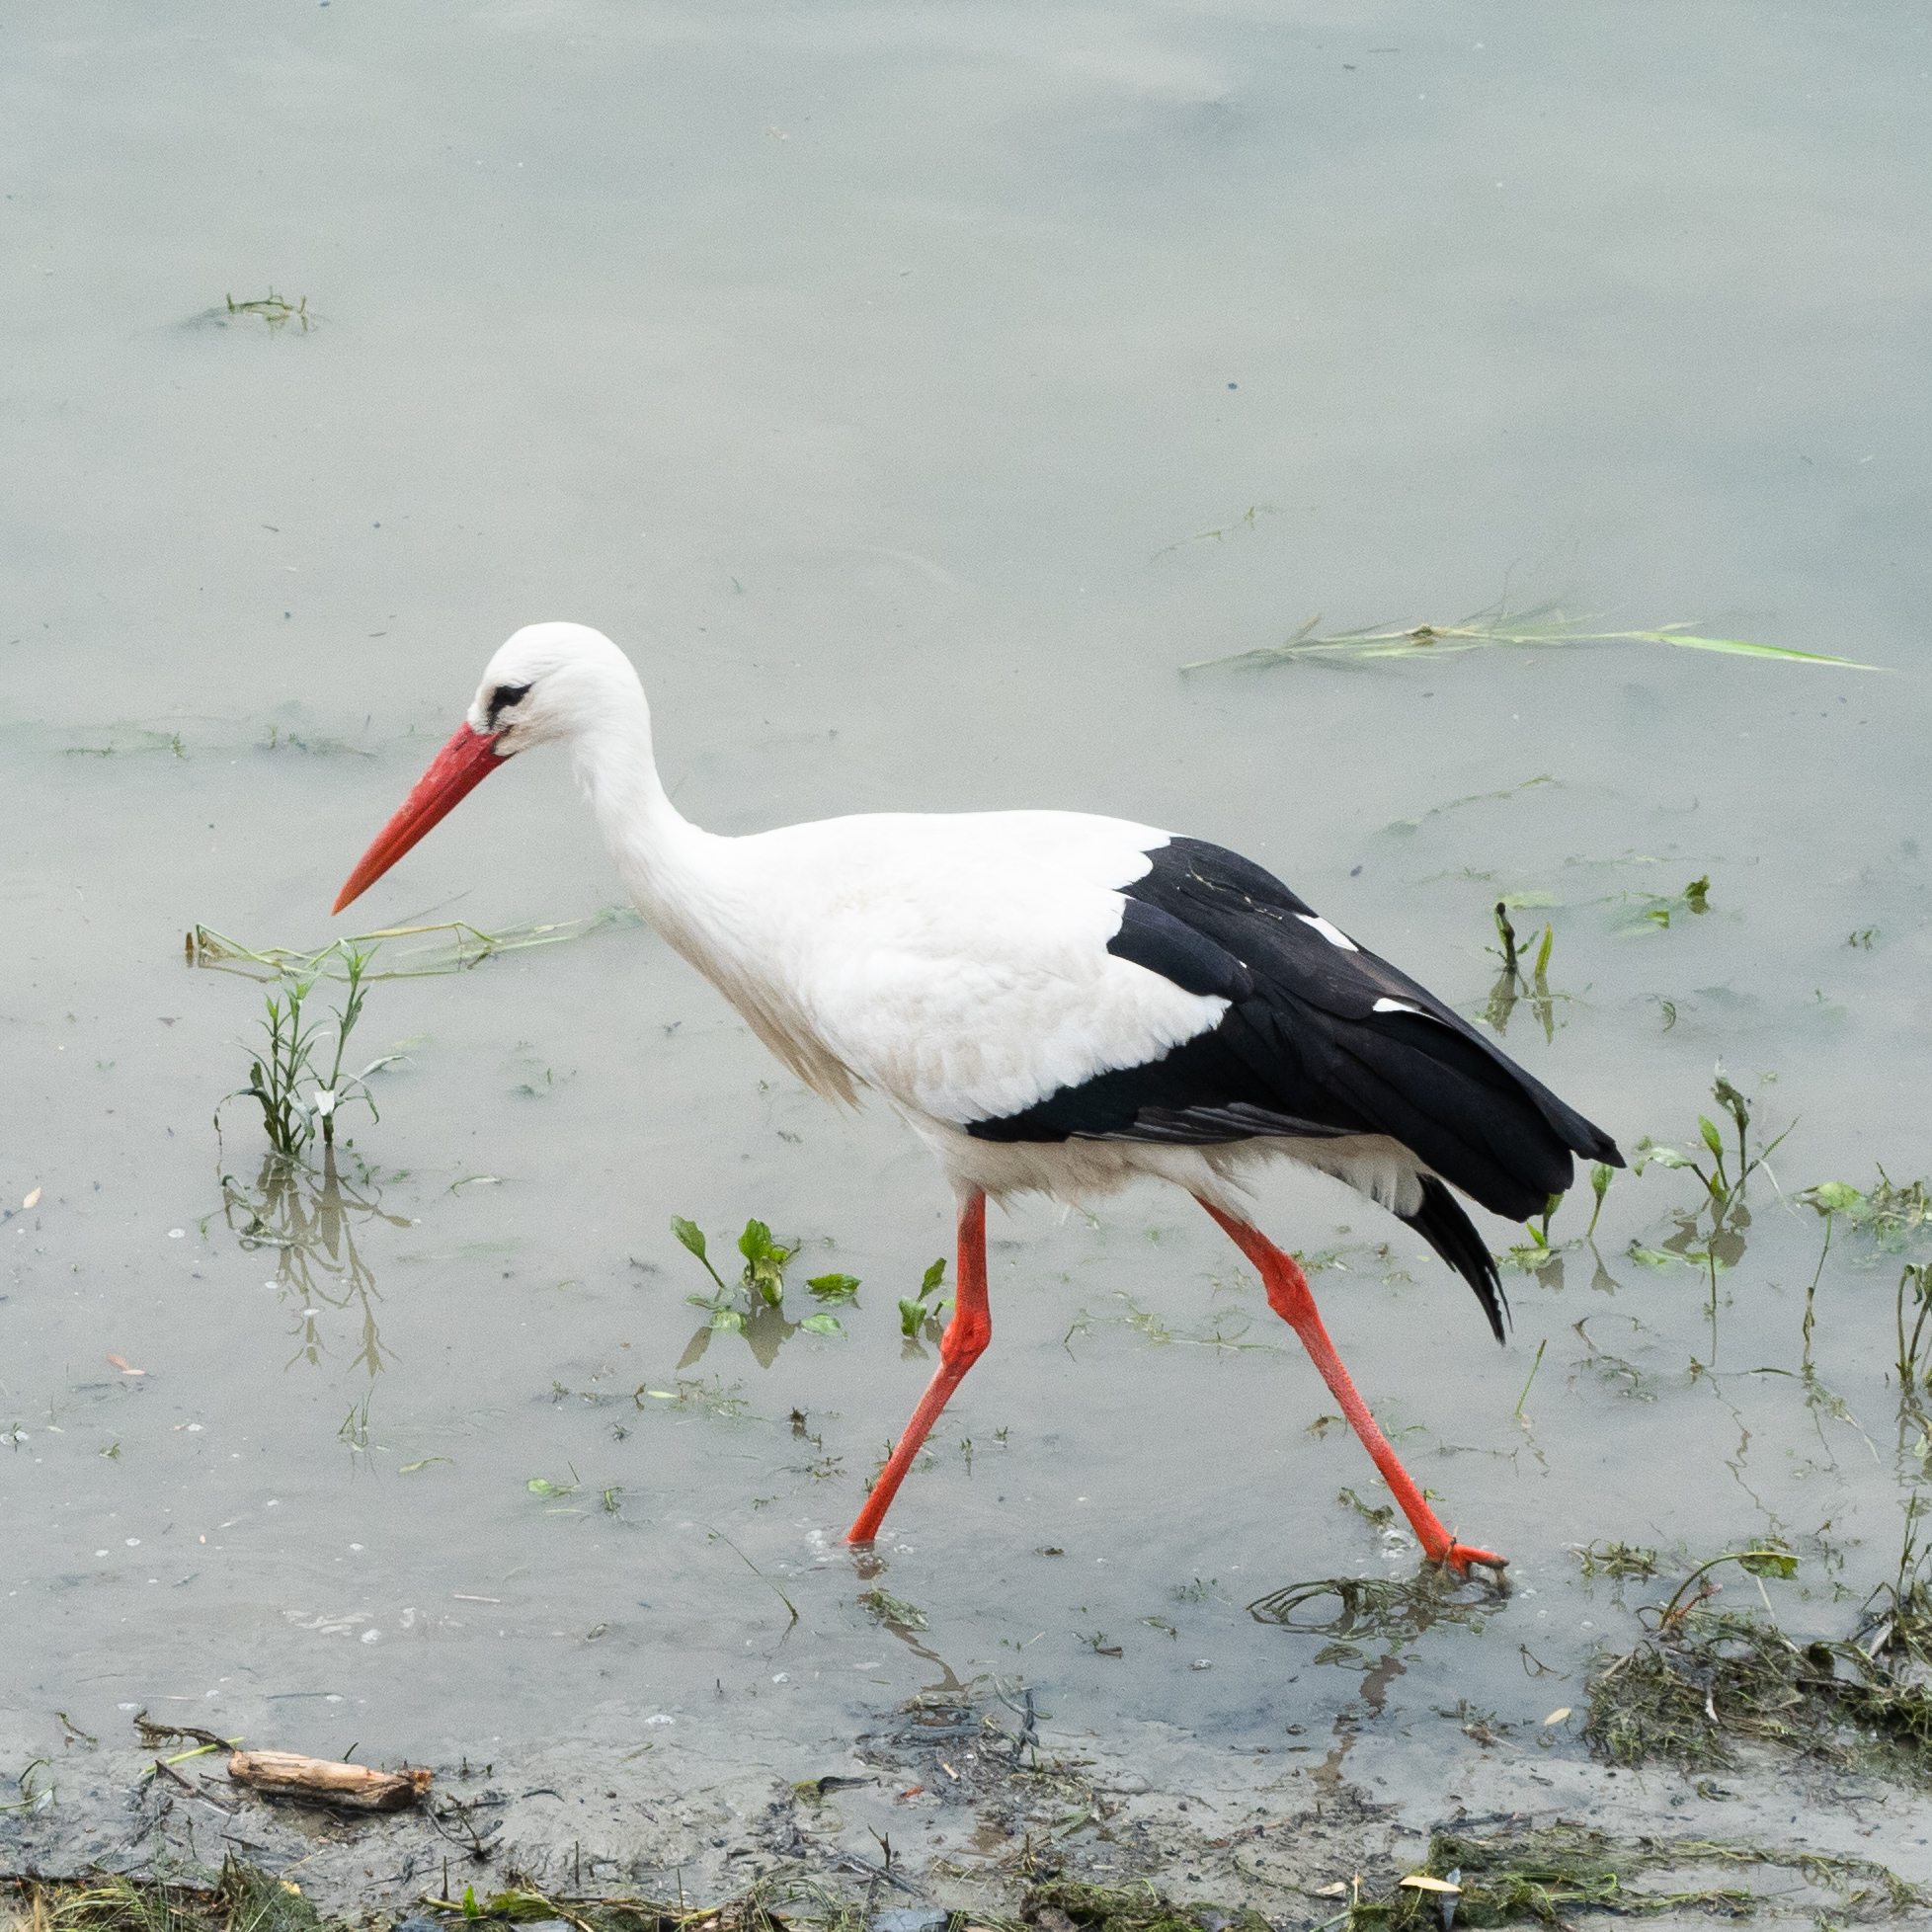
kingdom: Animalia
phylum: Chordata
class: Aves
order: Ciconiiformes
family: Ciconiidae
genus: Ciconia
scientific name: Ciconia ciconia
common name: White stork
